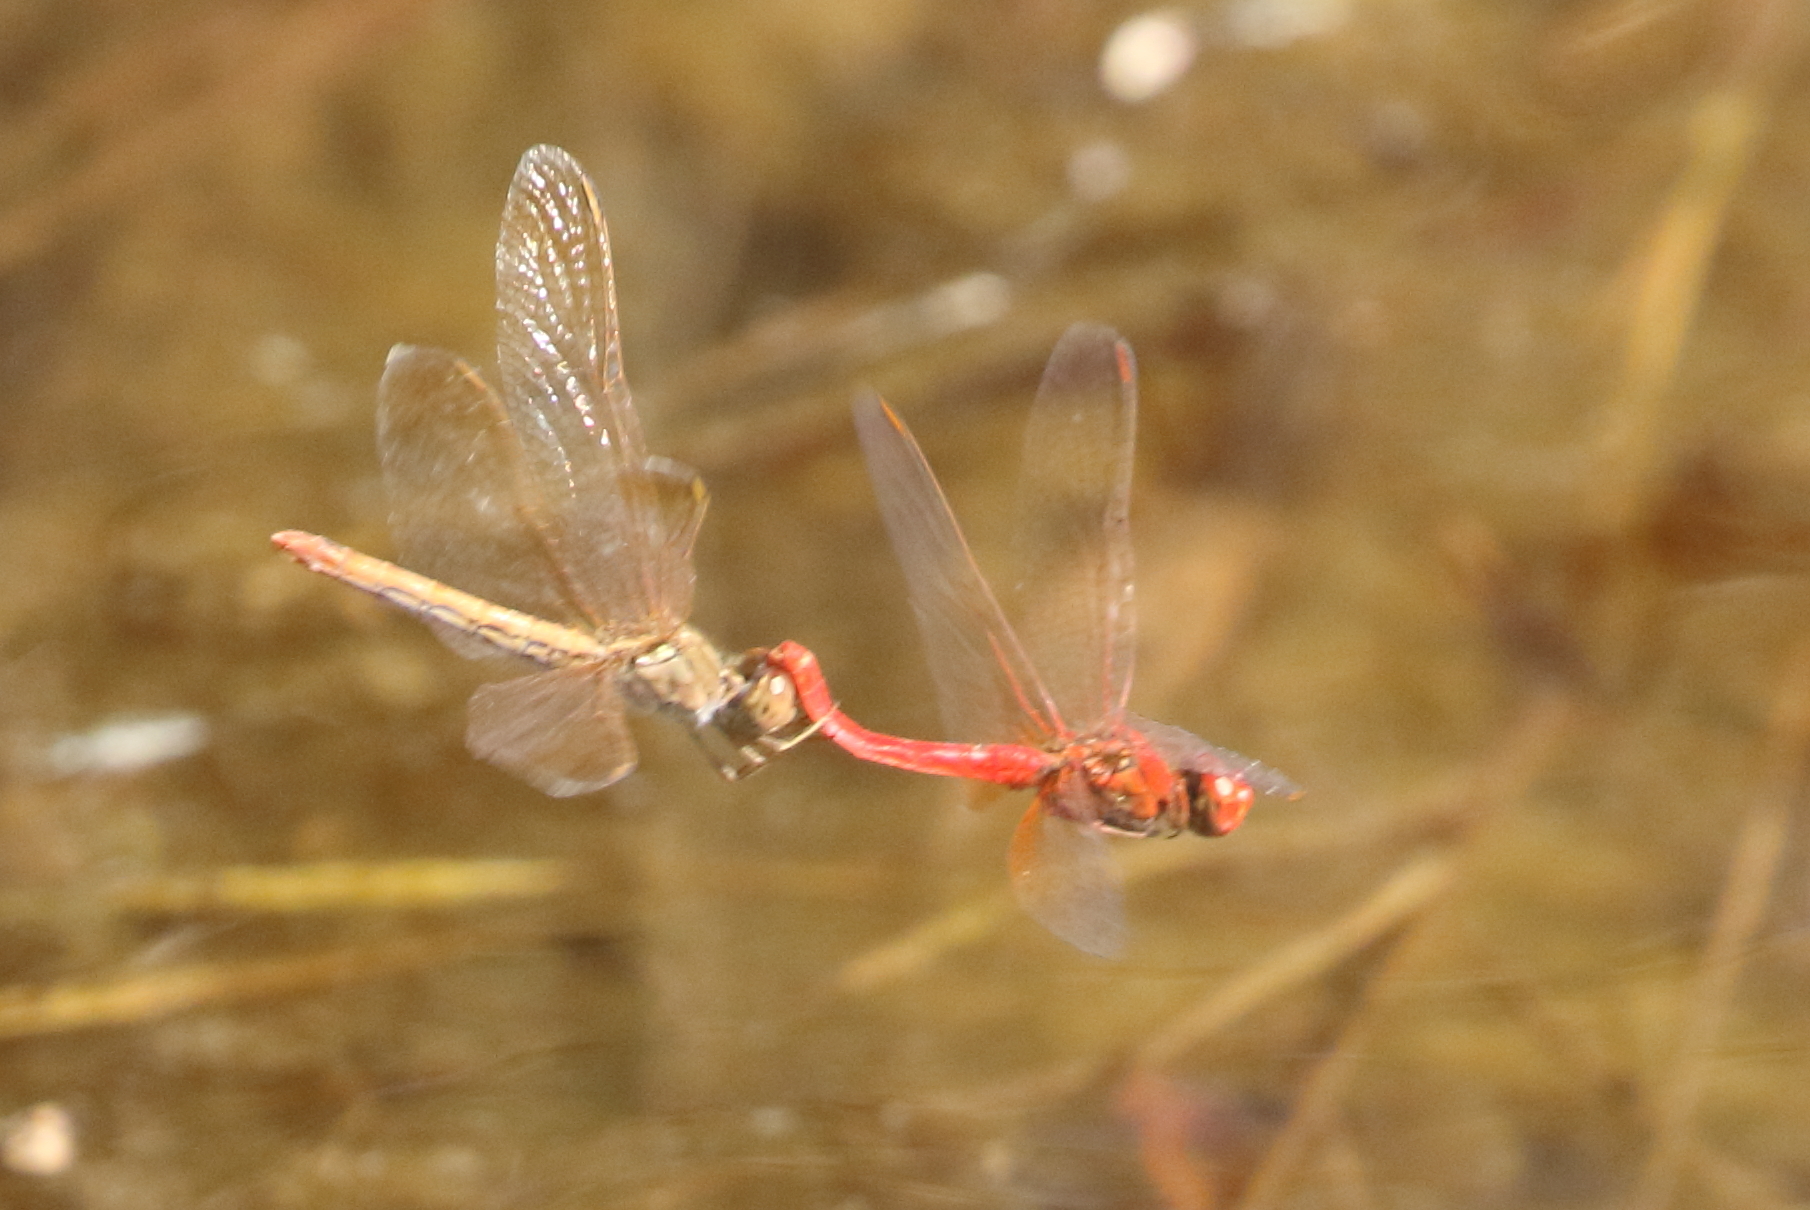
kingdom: Animalia
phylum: Arthropoda
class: Insecta
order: Odonata
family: Libellulidae
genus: Diplacodes
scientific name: Diplacodes haematodes
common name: Scarlet percher
